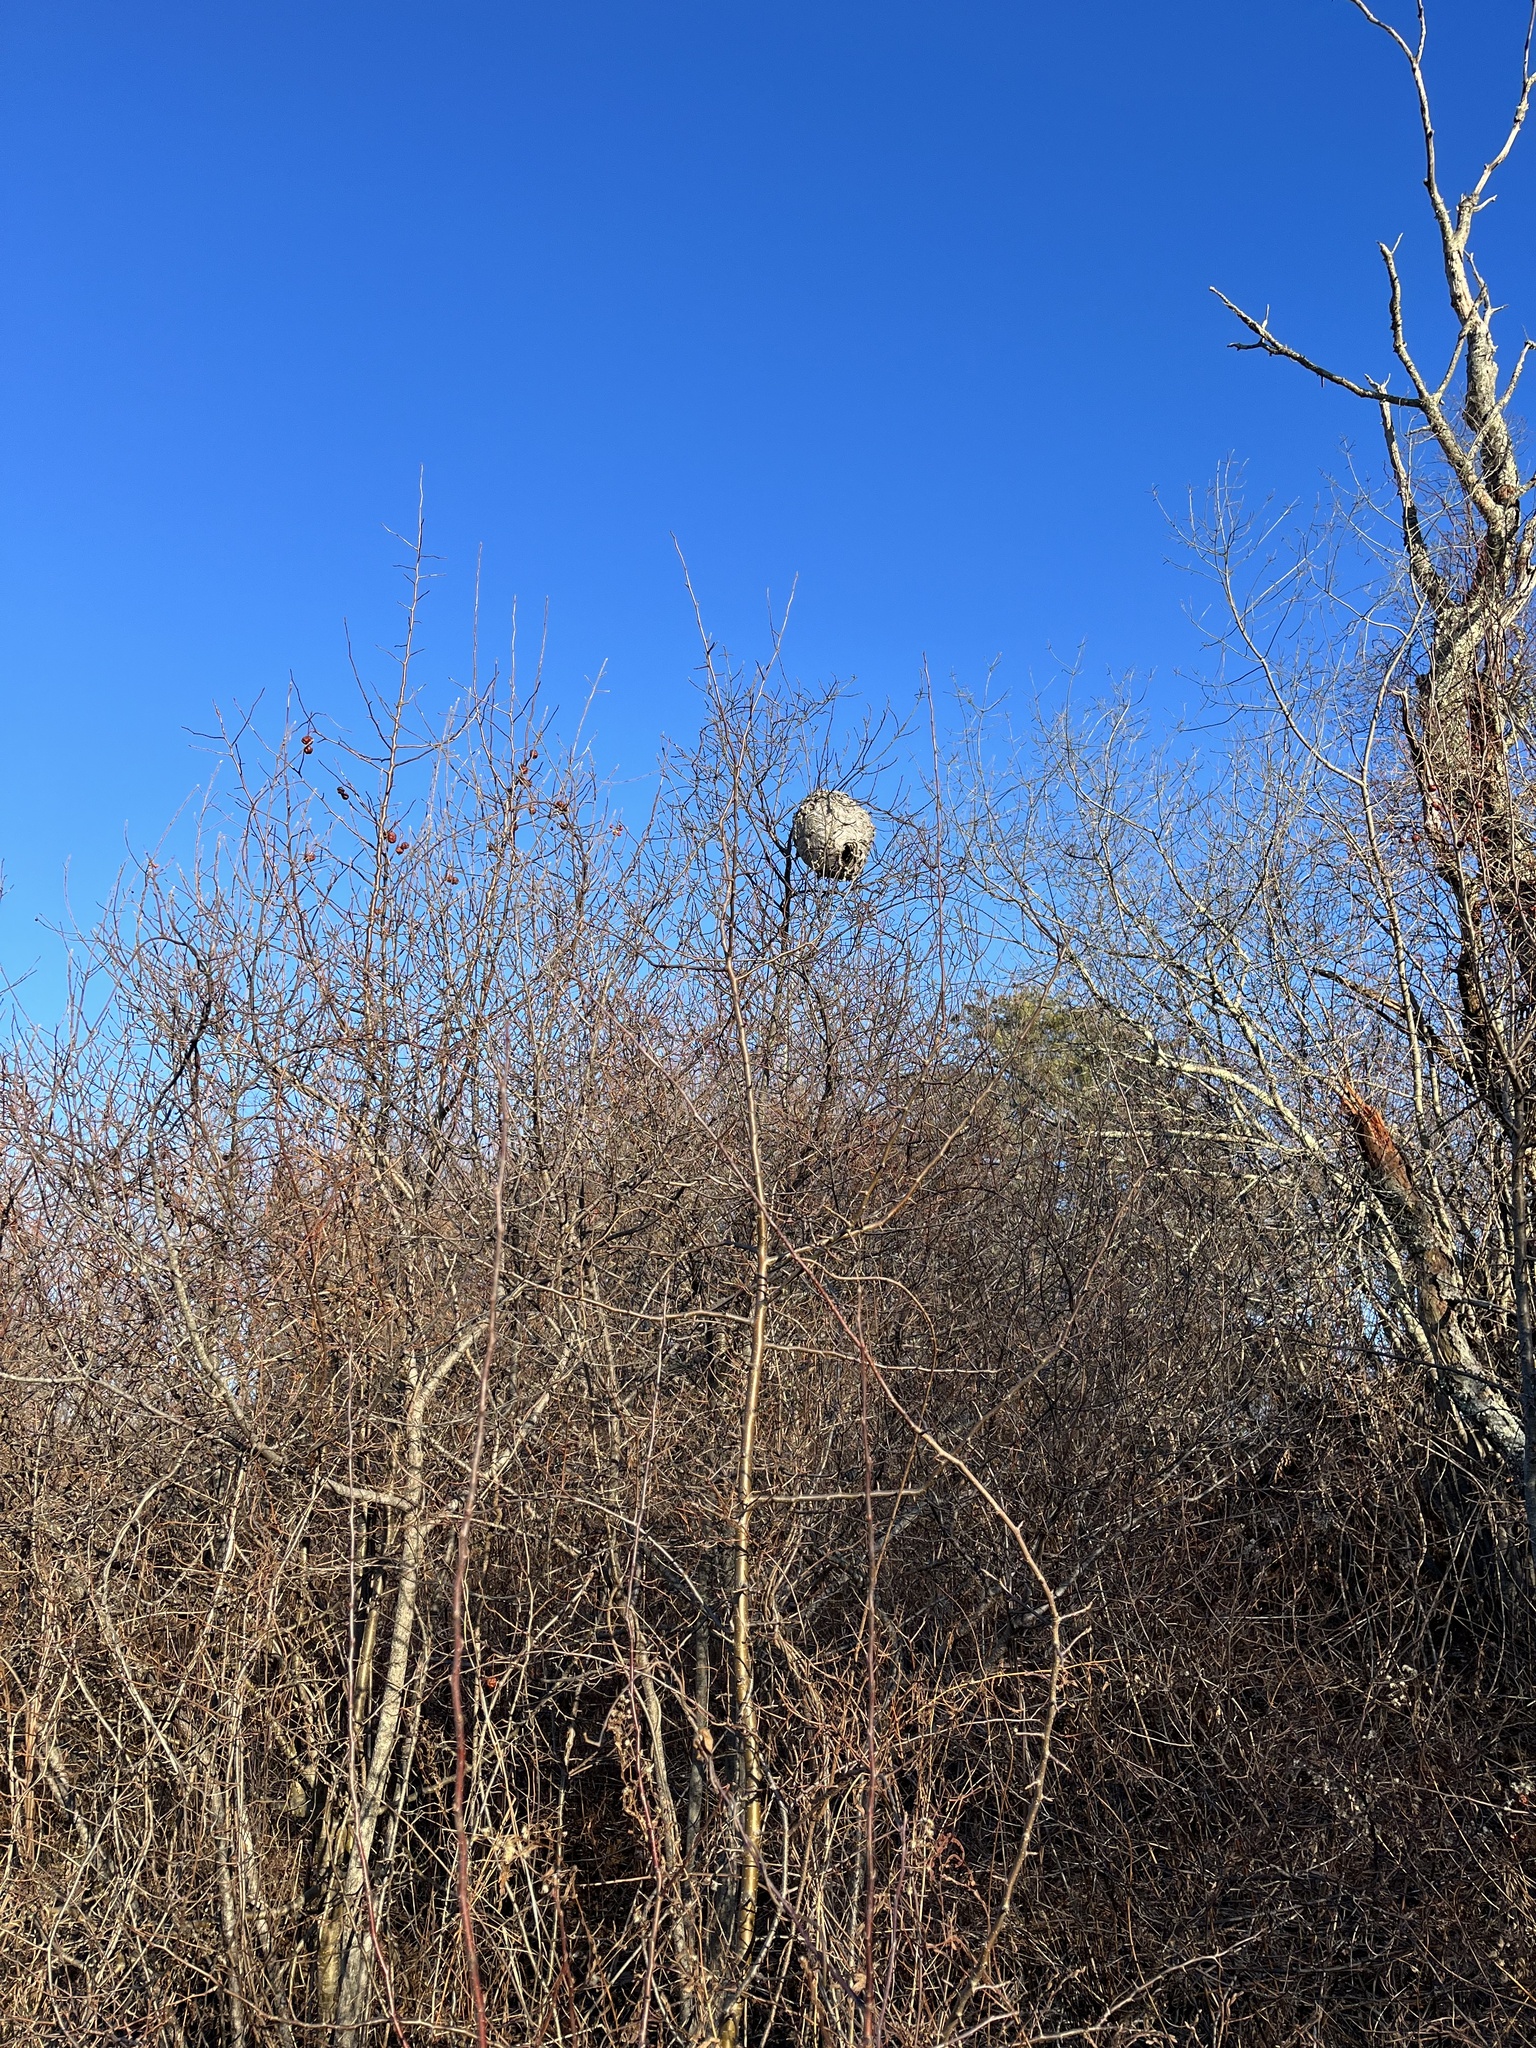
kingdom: Animalia
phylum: Arthropoda
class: Insecta
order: Hymenoptera
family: Vespidae
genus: Dolichovespula
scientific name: Dolichovespula maculata
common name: Bald-faced hornet
